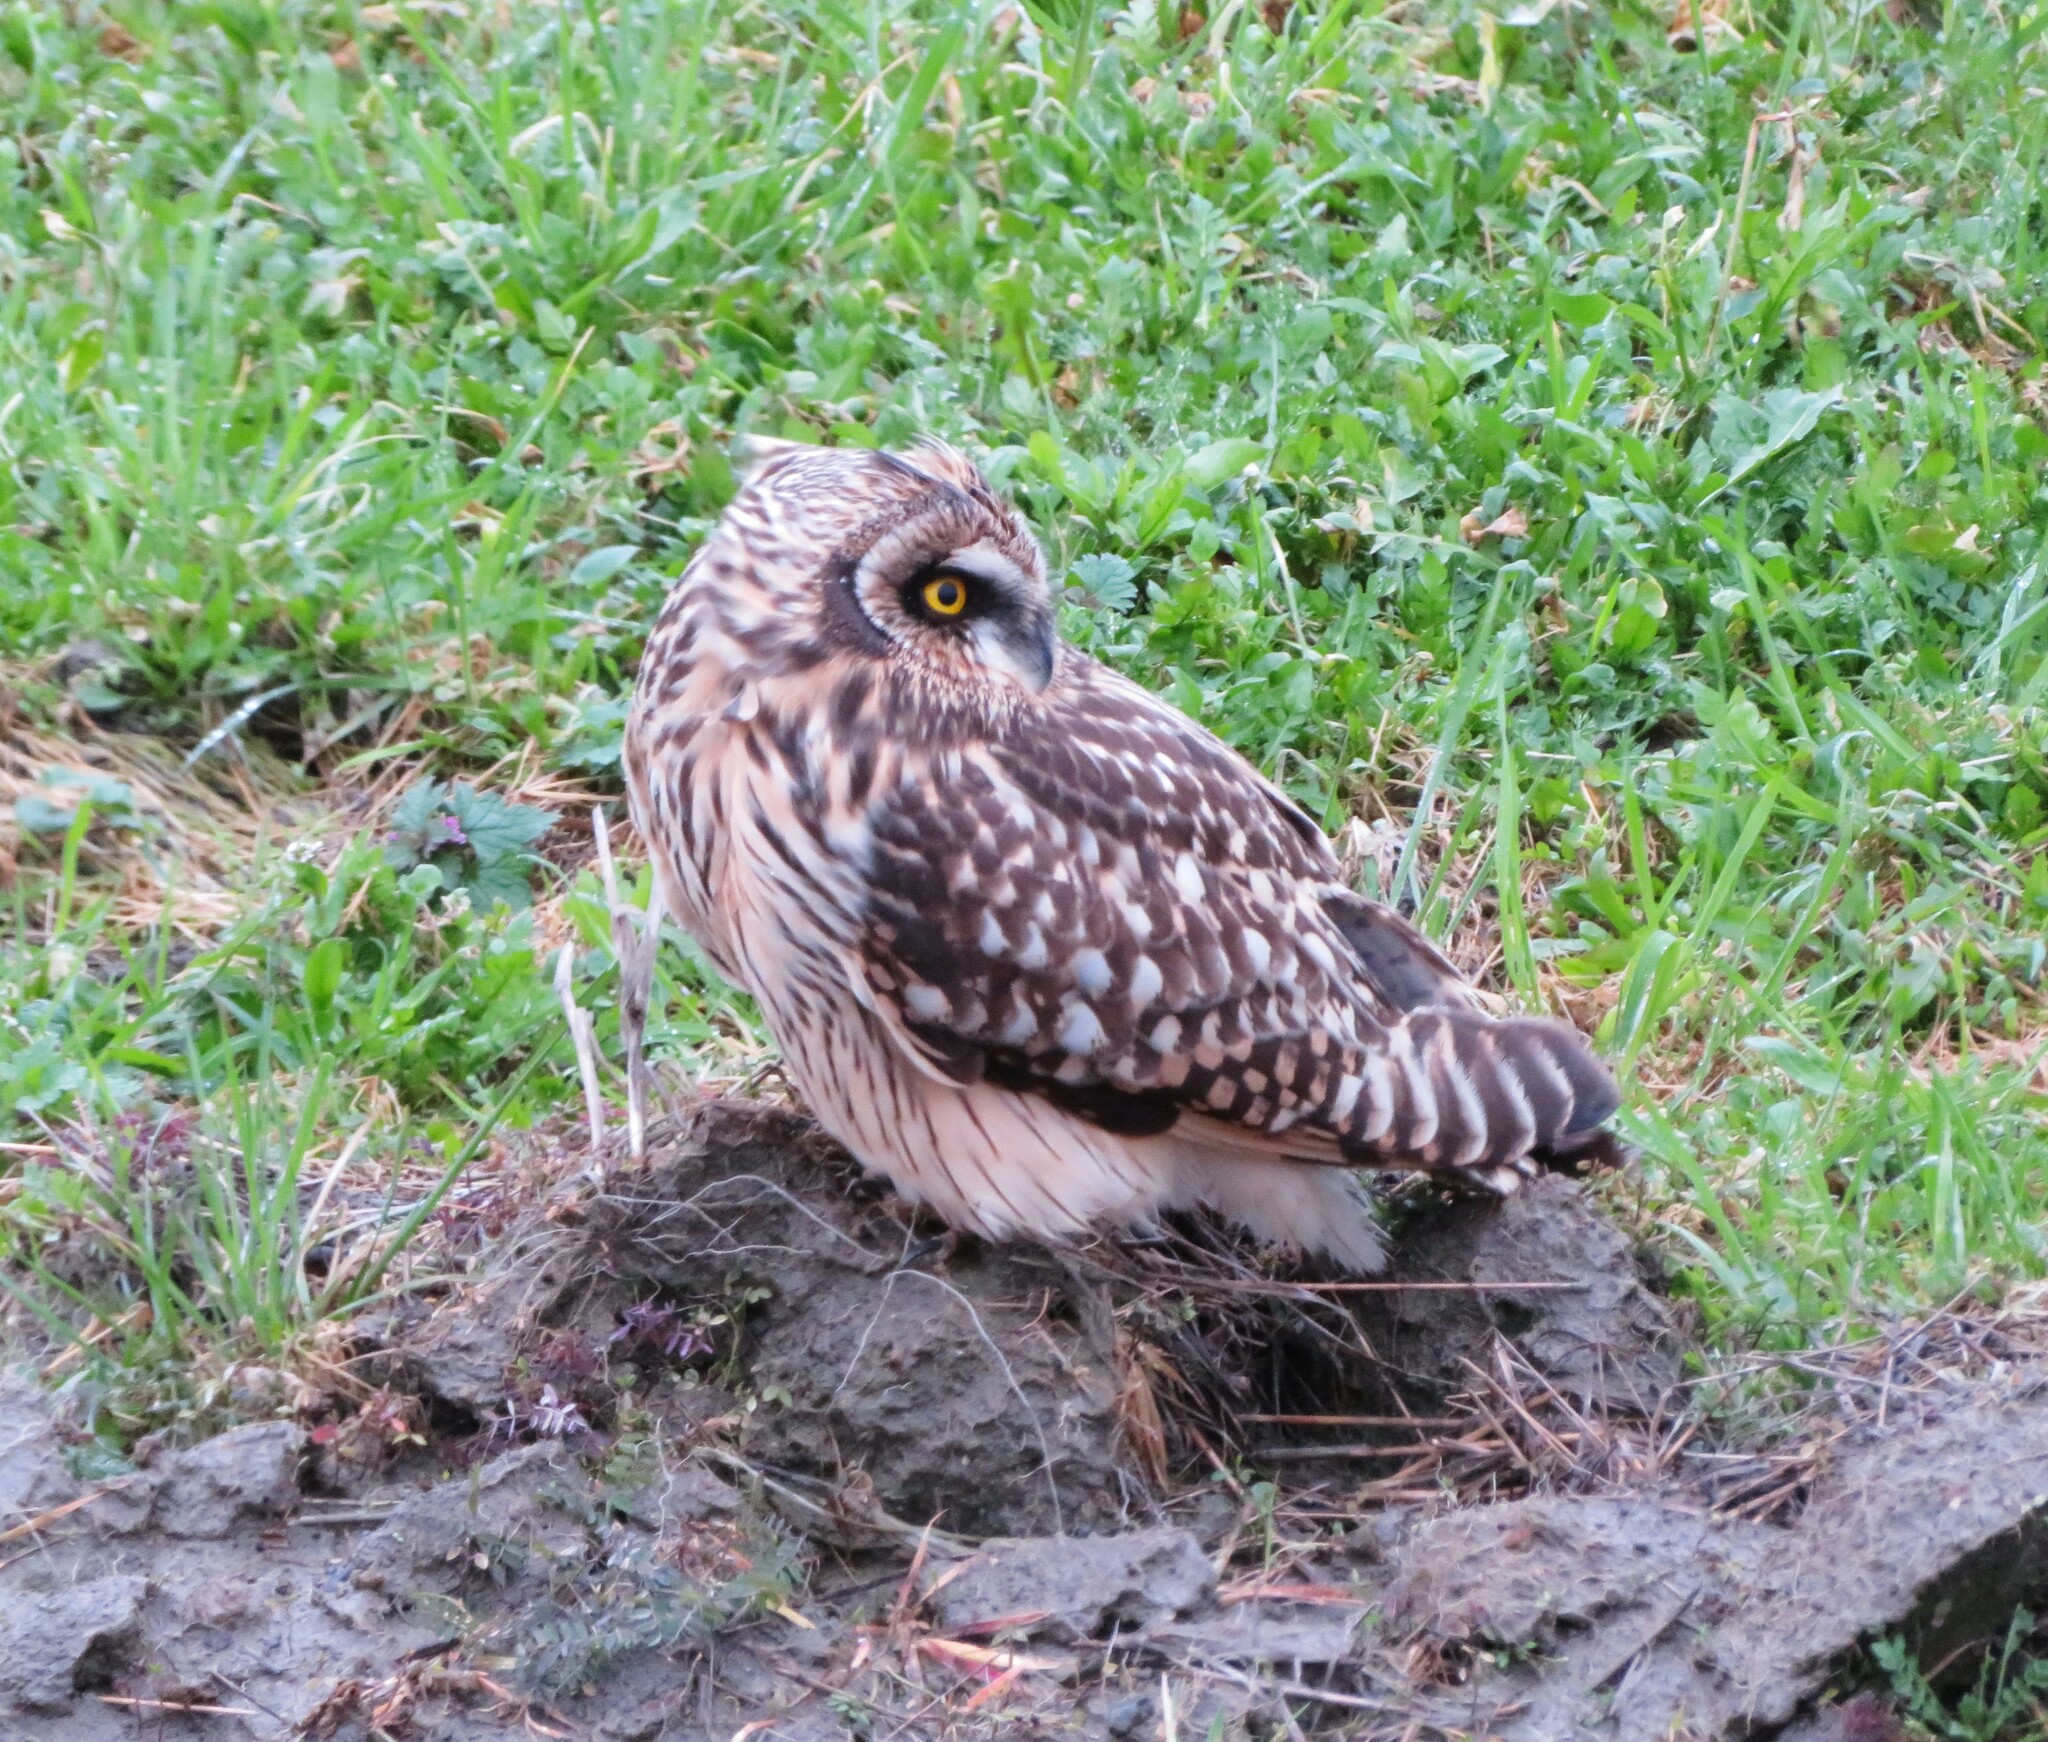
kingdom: Animalia
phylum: Chordata
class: Aves
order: Strigiformes
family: Strigidae
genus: Asio
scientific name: Asio flammeus
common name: Short-eared owl
